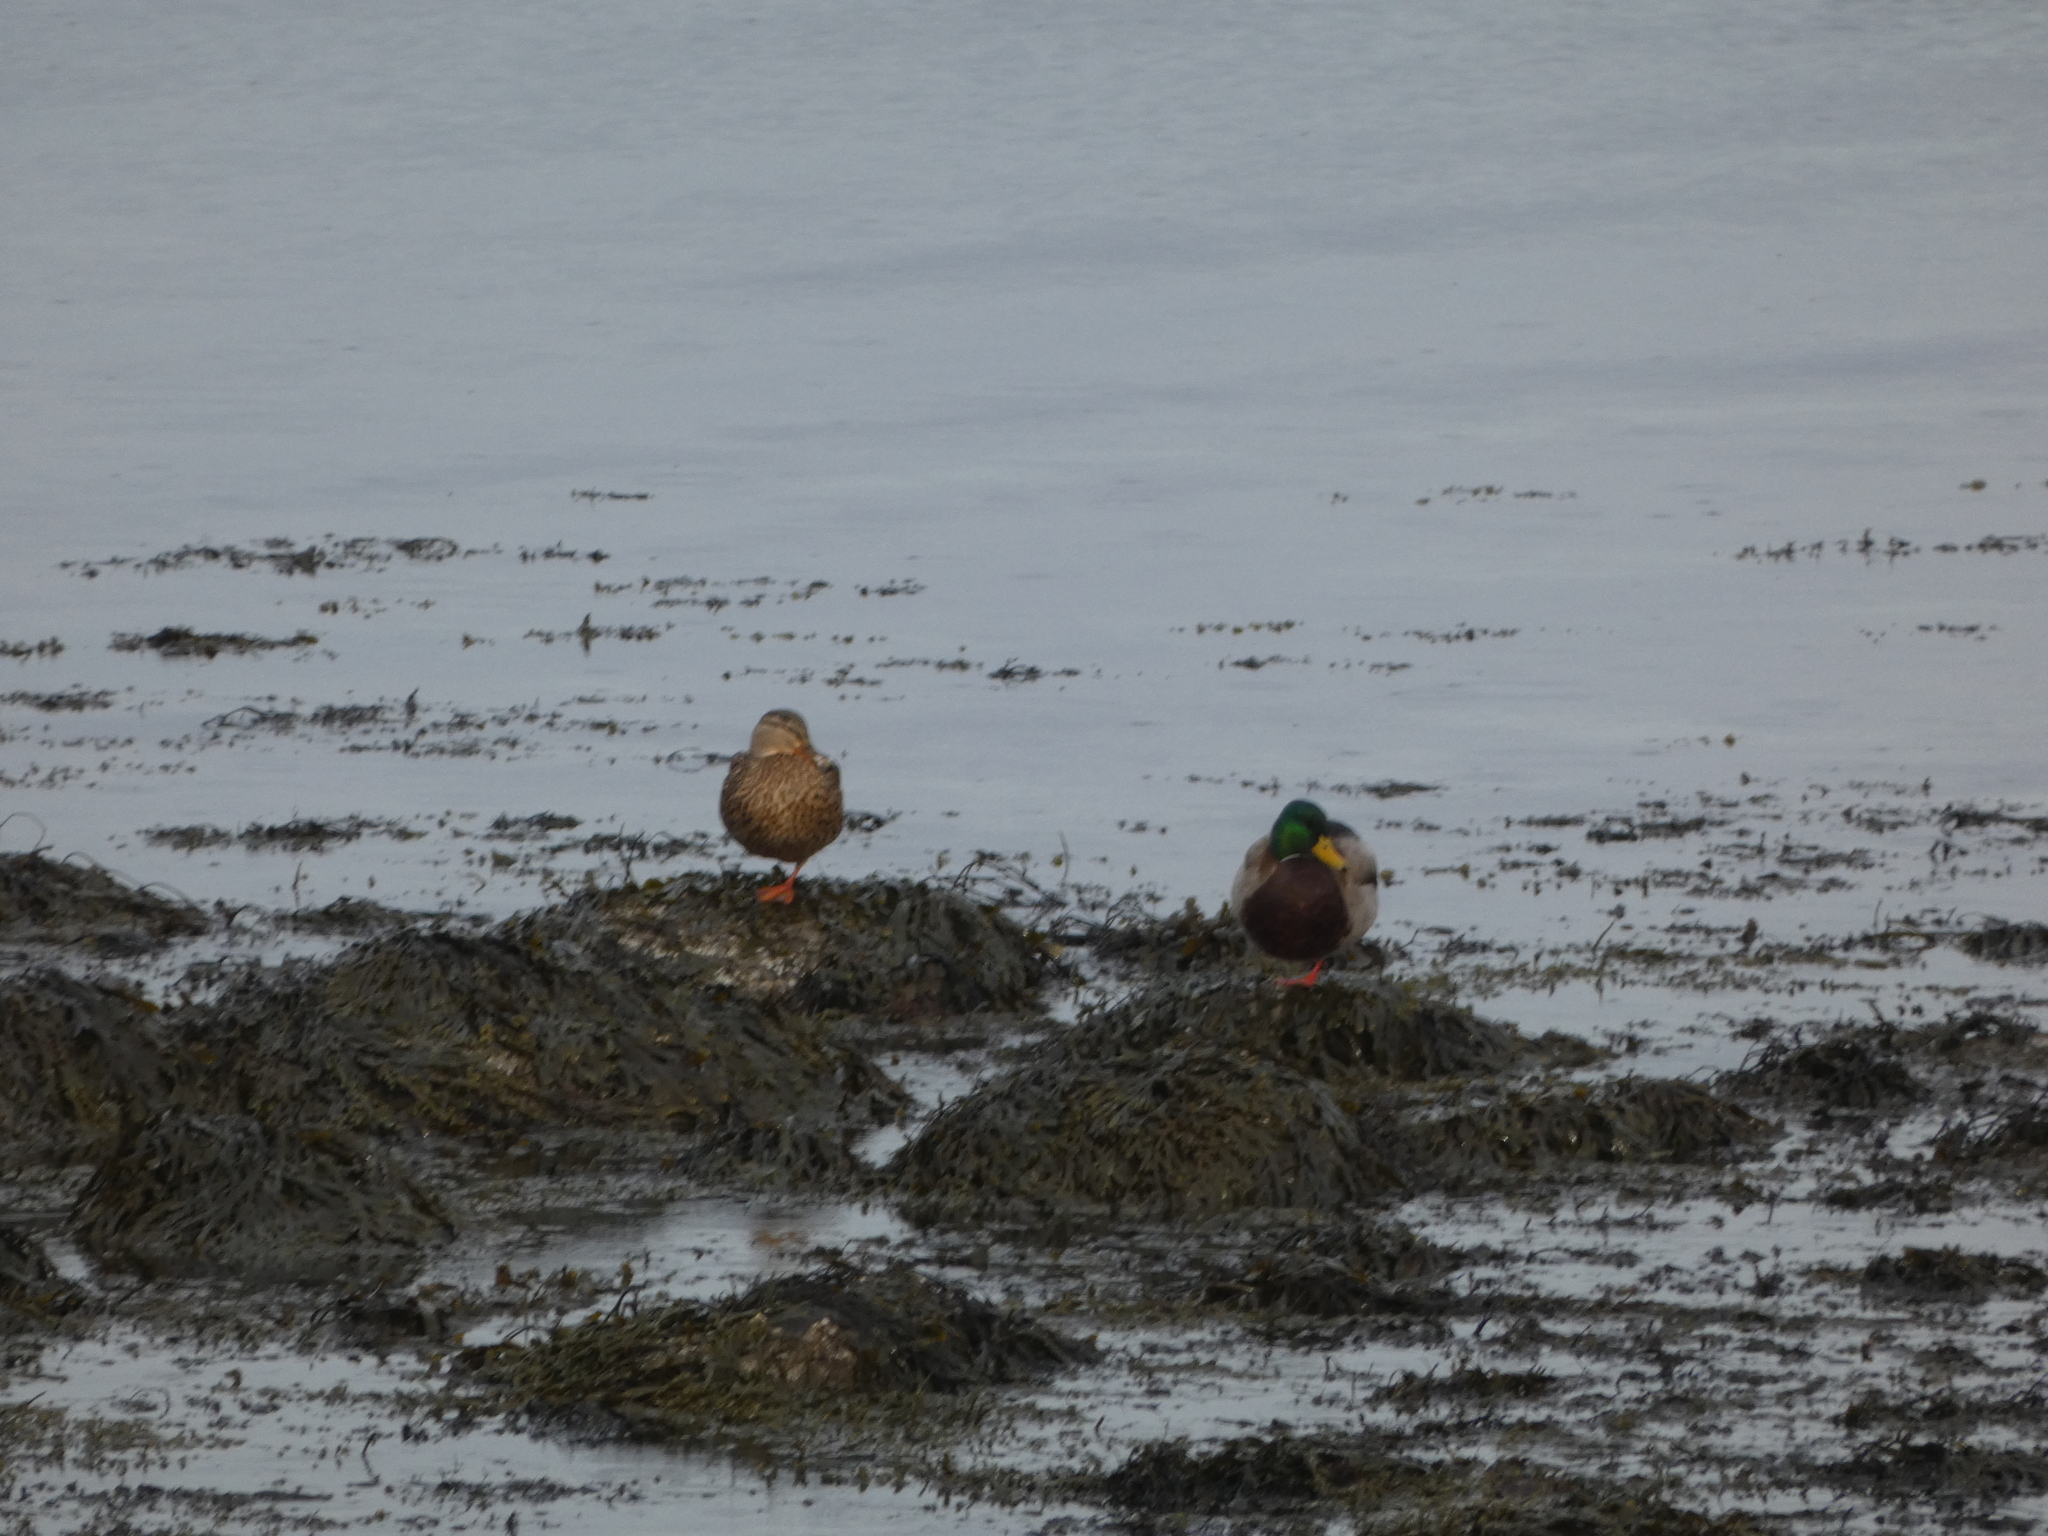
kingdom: Animalia
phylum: Chordata
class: Aves
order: Anseriformes
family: Anatidae
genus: Anas
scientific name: Anas platyrhynchos
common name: Mallard
